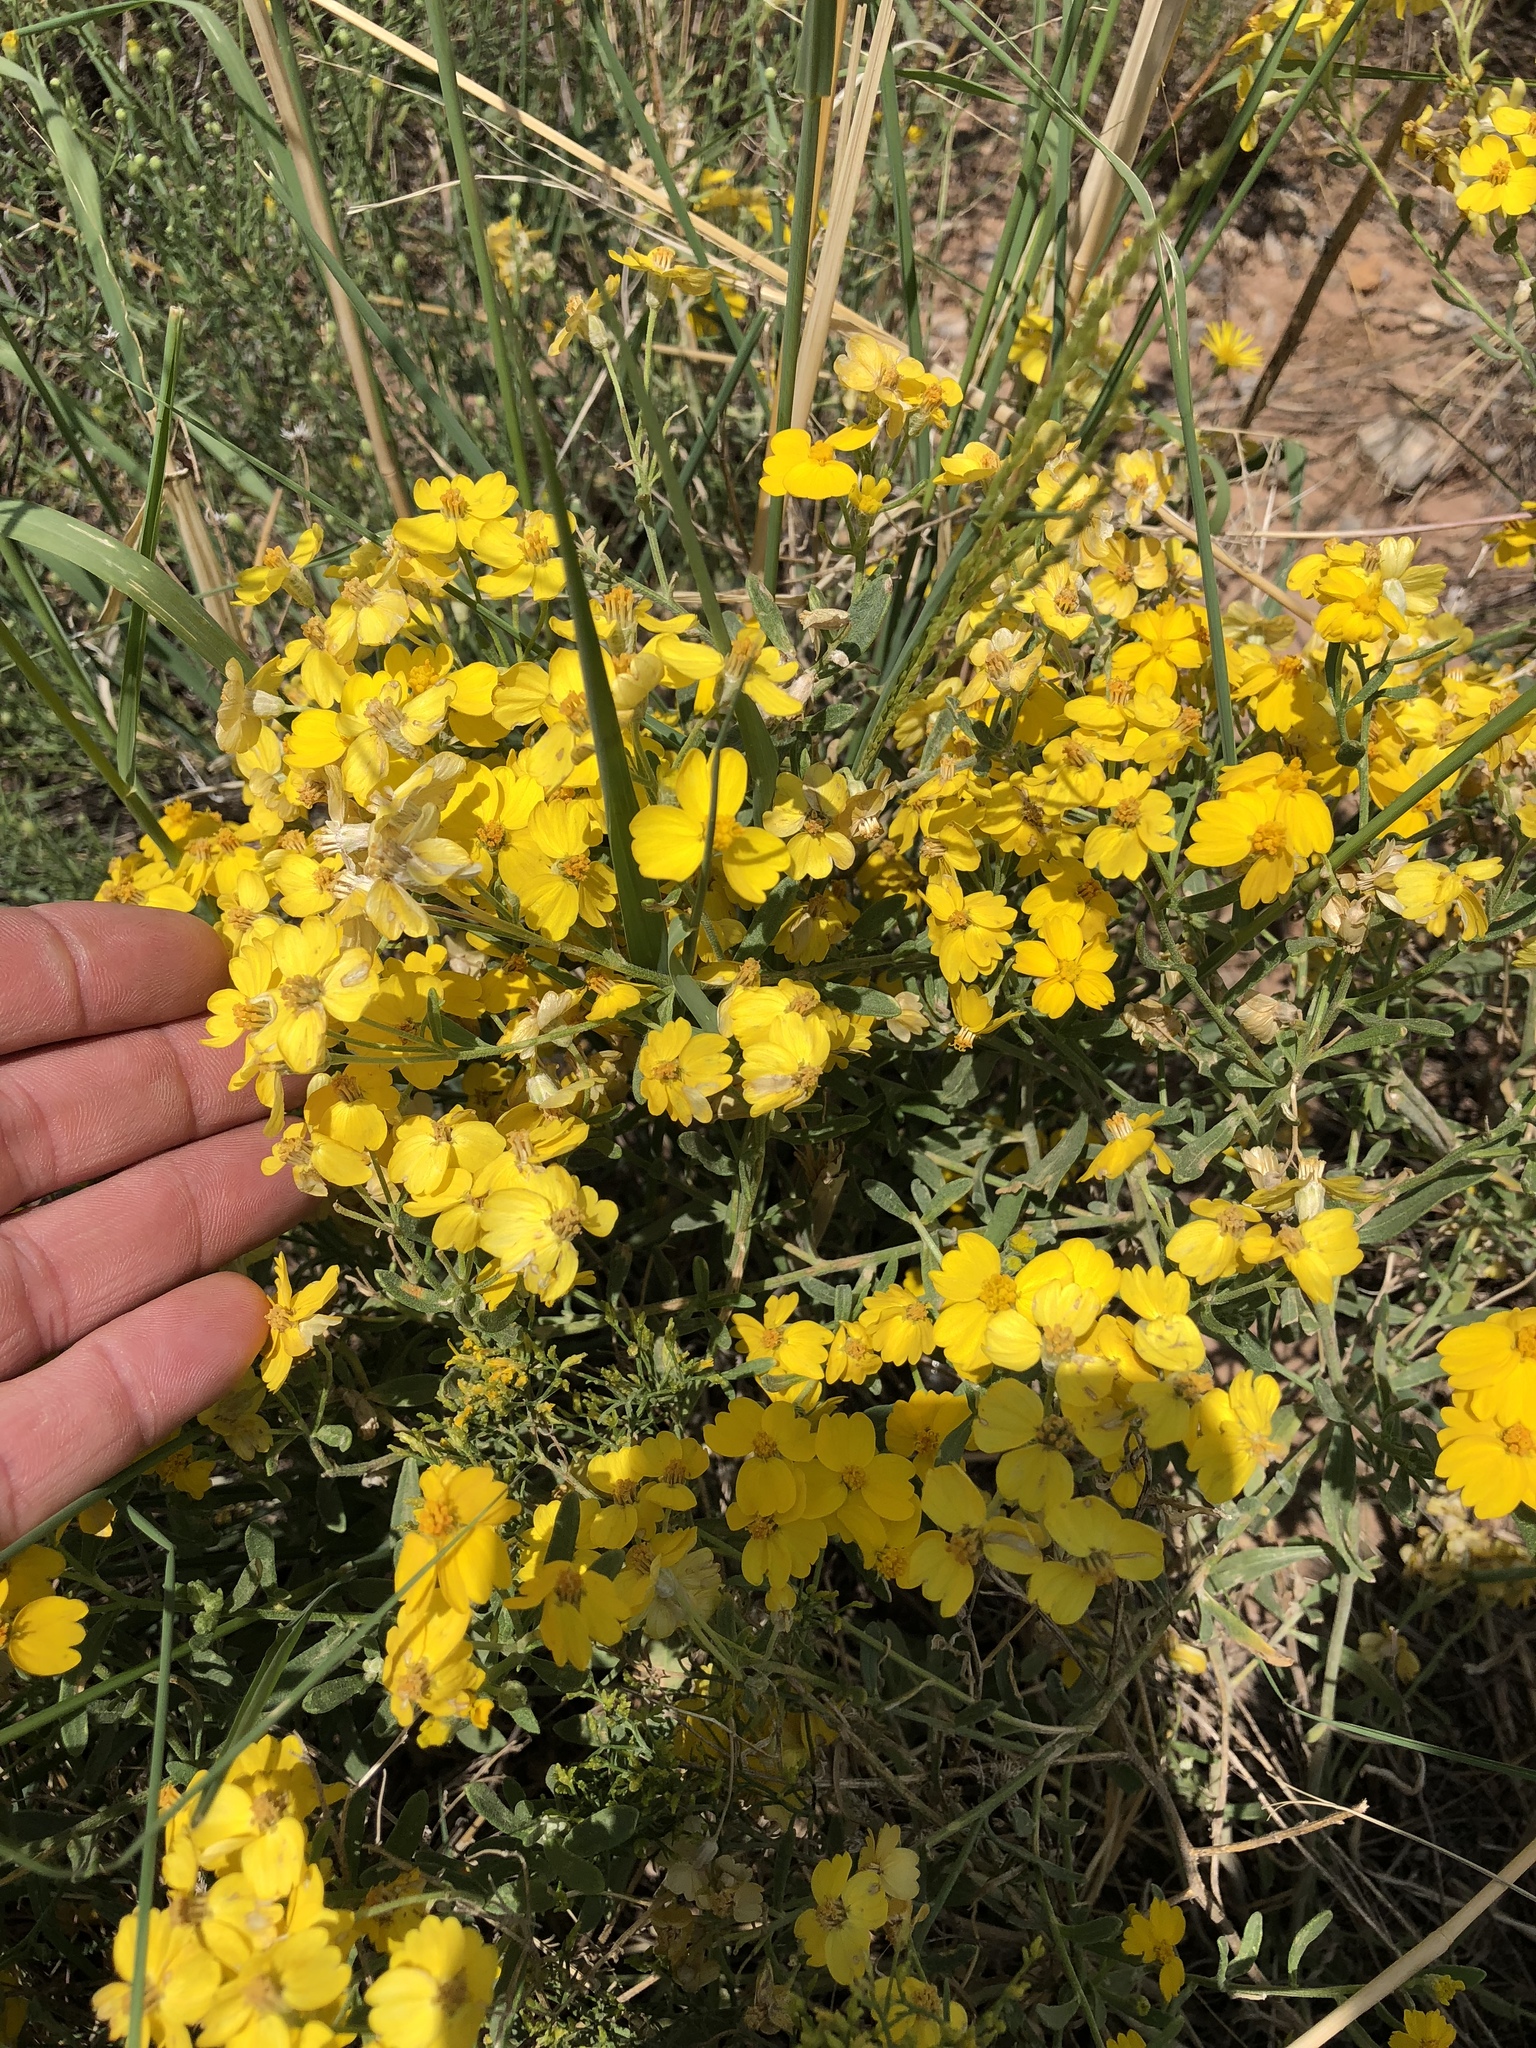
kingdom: Plantae
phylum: Tracheophyta
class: Magnoliopsida
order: Asterales
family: Asteraceae
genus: Psilostrophe
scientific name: Psilostrophe tagetina
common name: Marigold paper-flower
